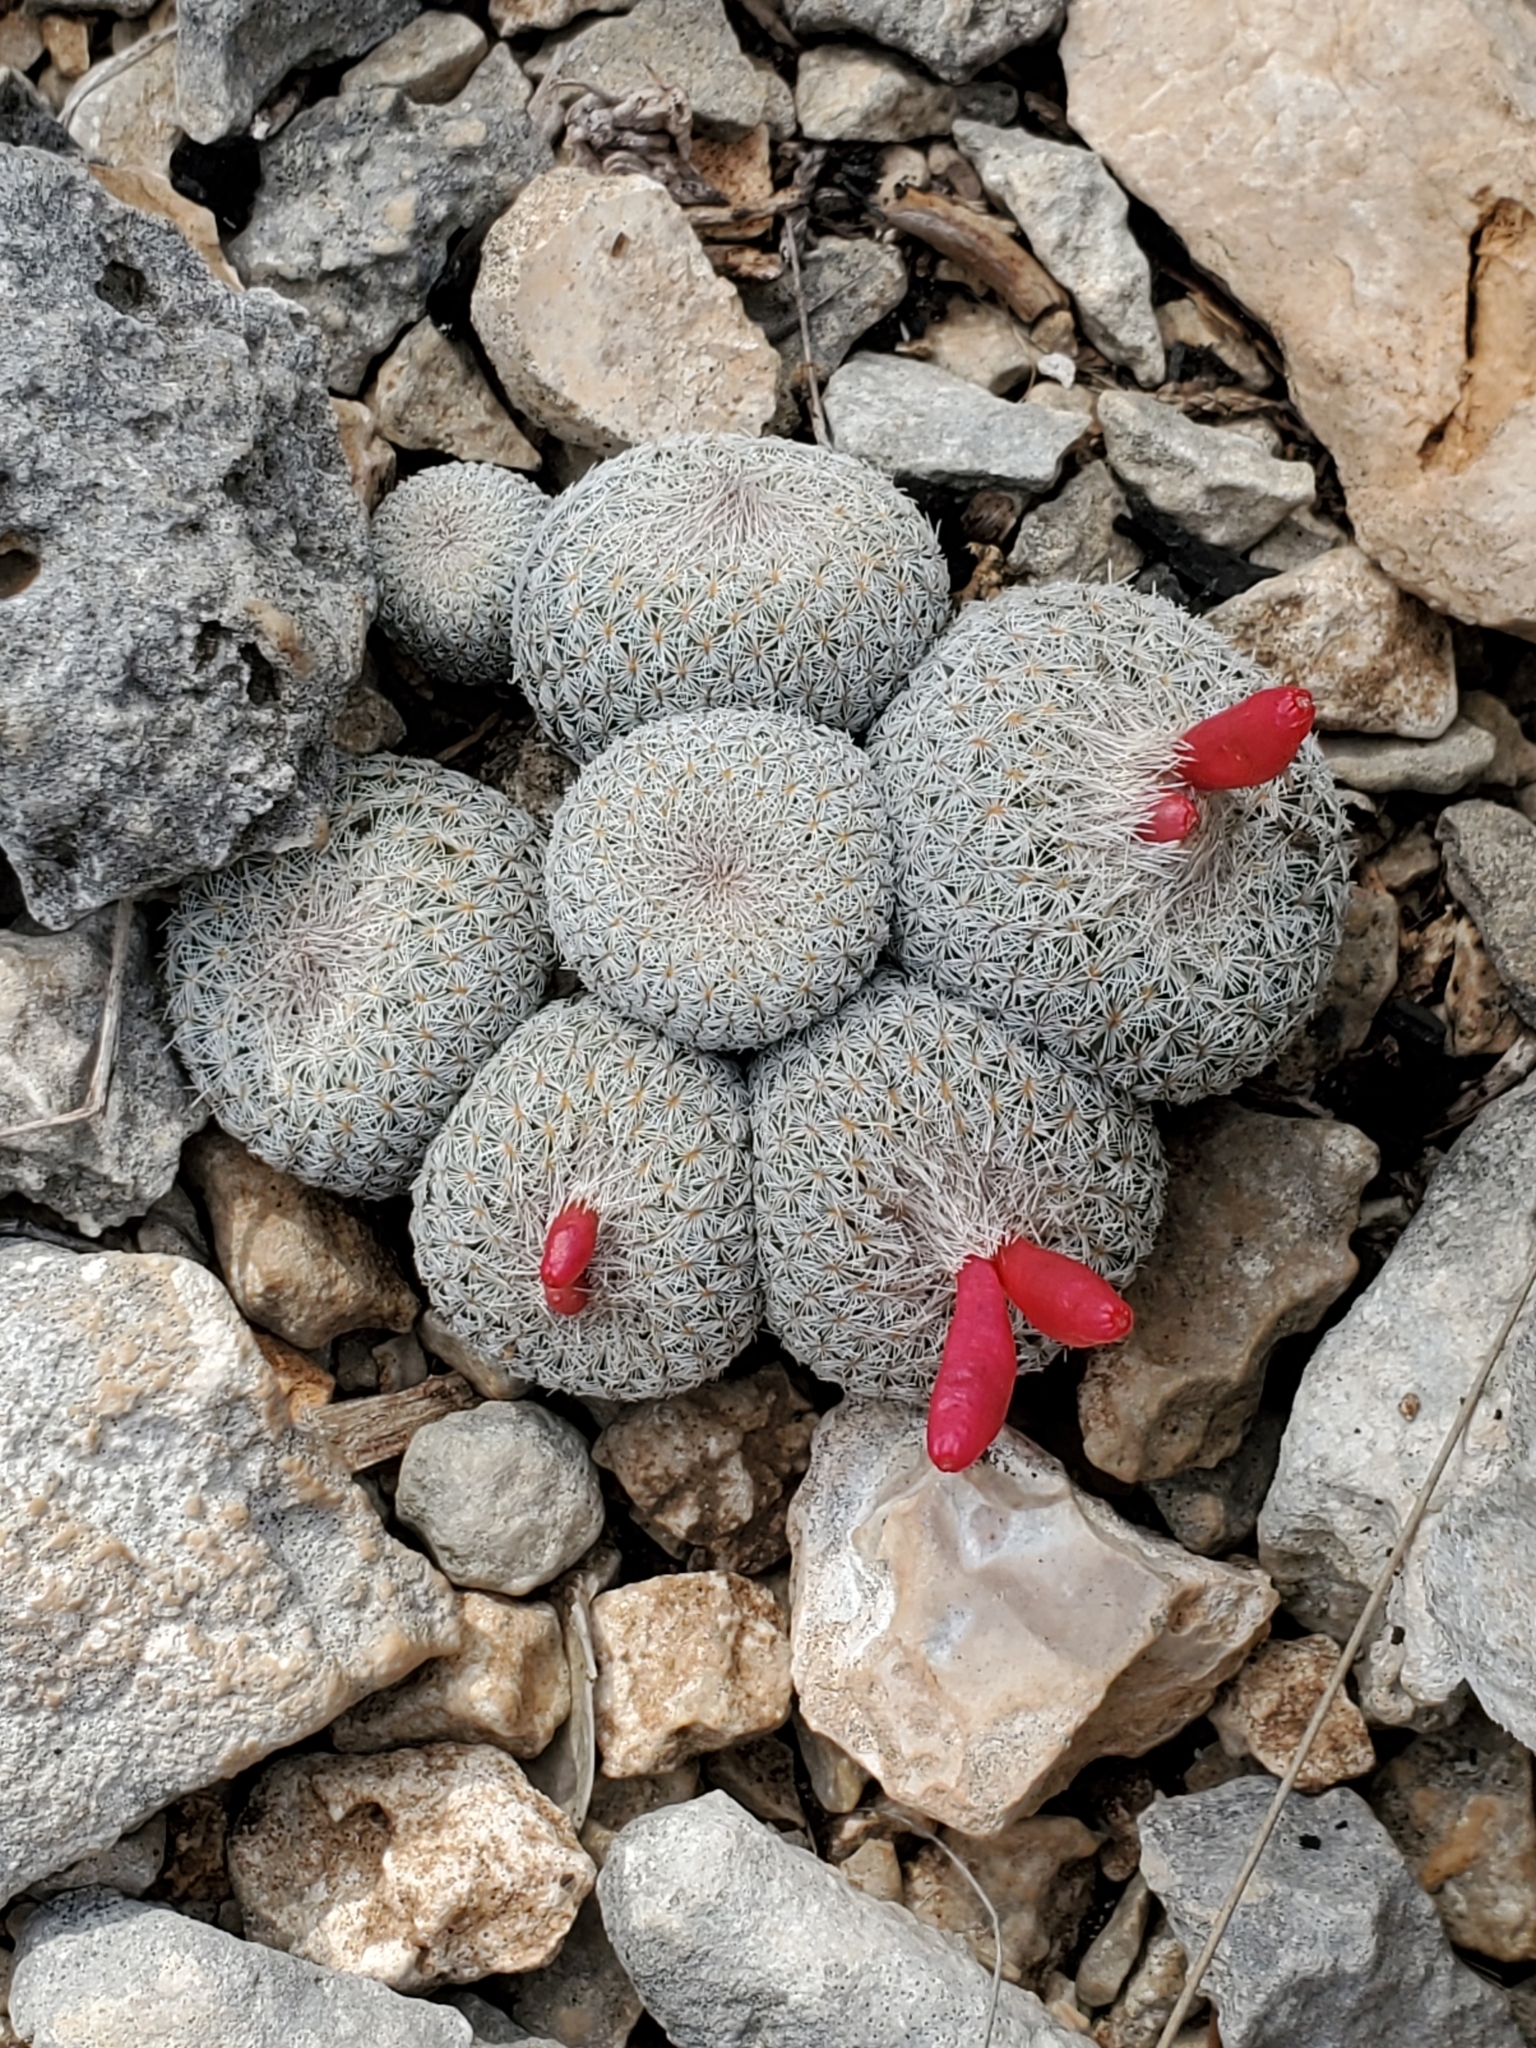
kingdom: Plantae
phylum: Tracheophyta
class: Magnoliopsida
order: Caryophyllales
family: Cactaceae
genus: Epithelantha
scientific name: Epithelantha micromeris
